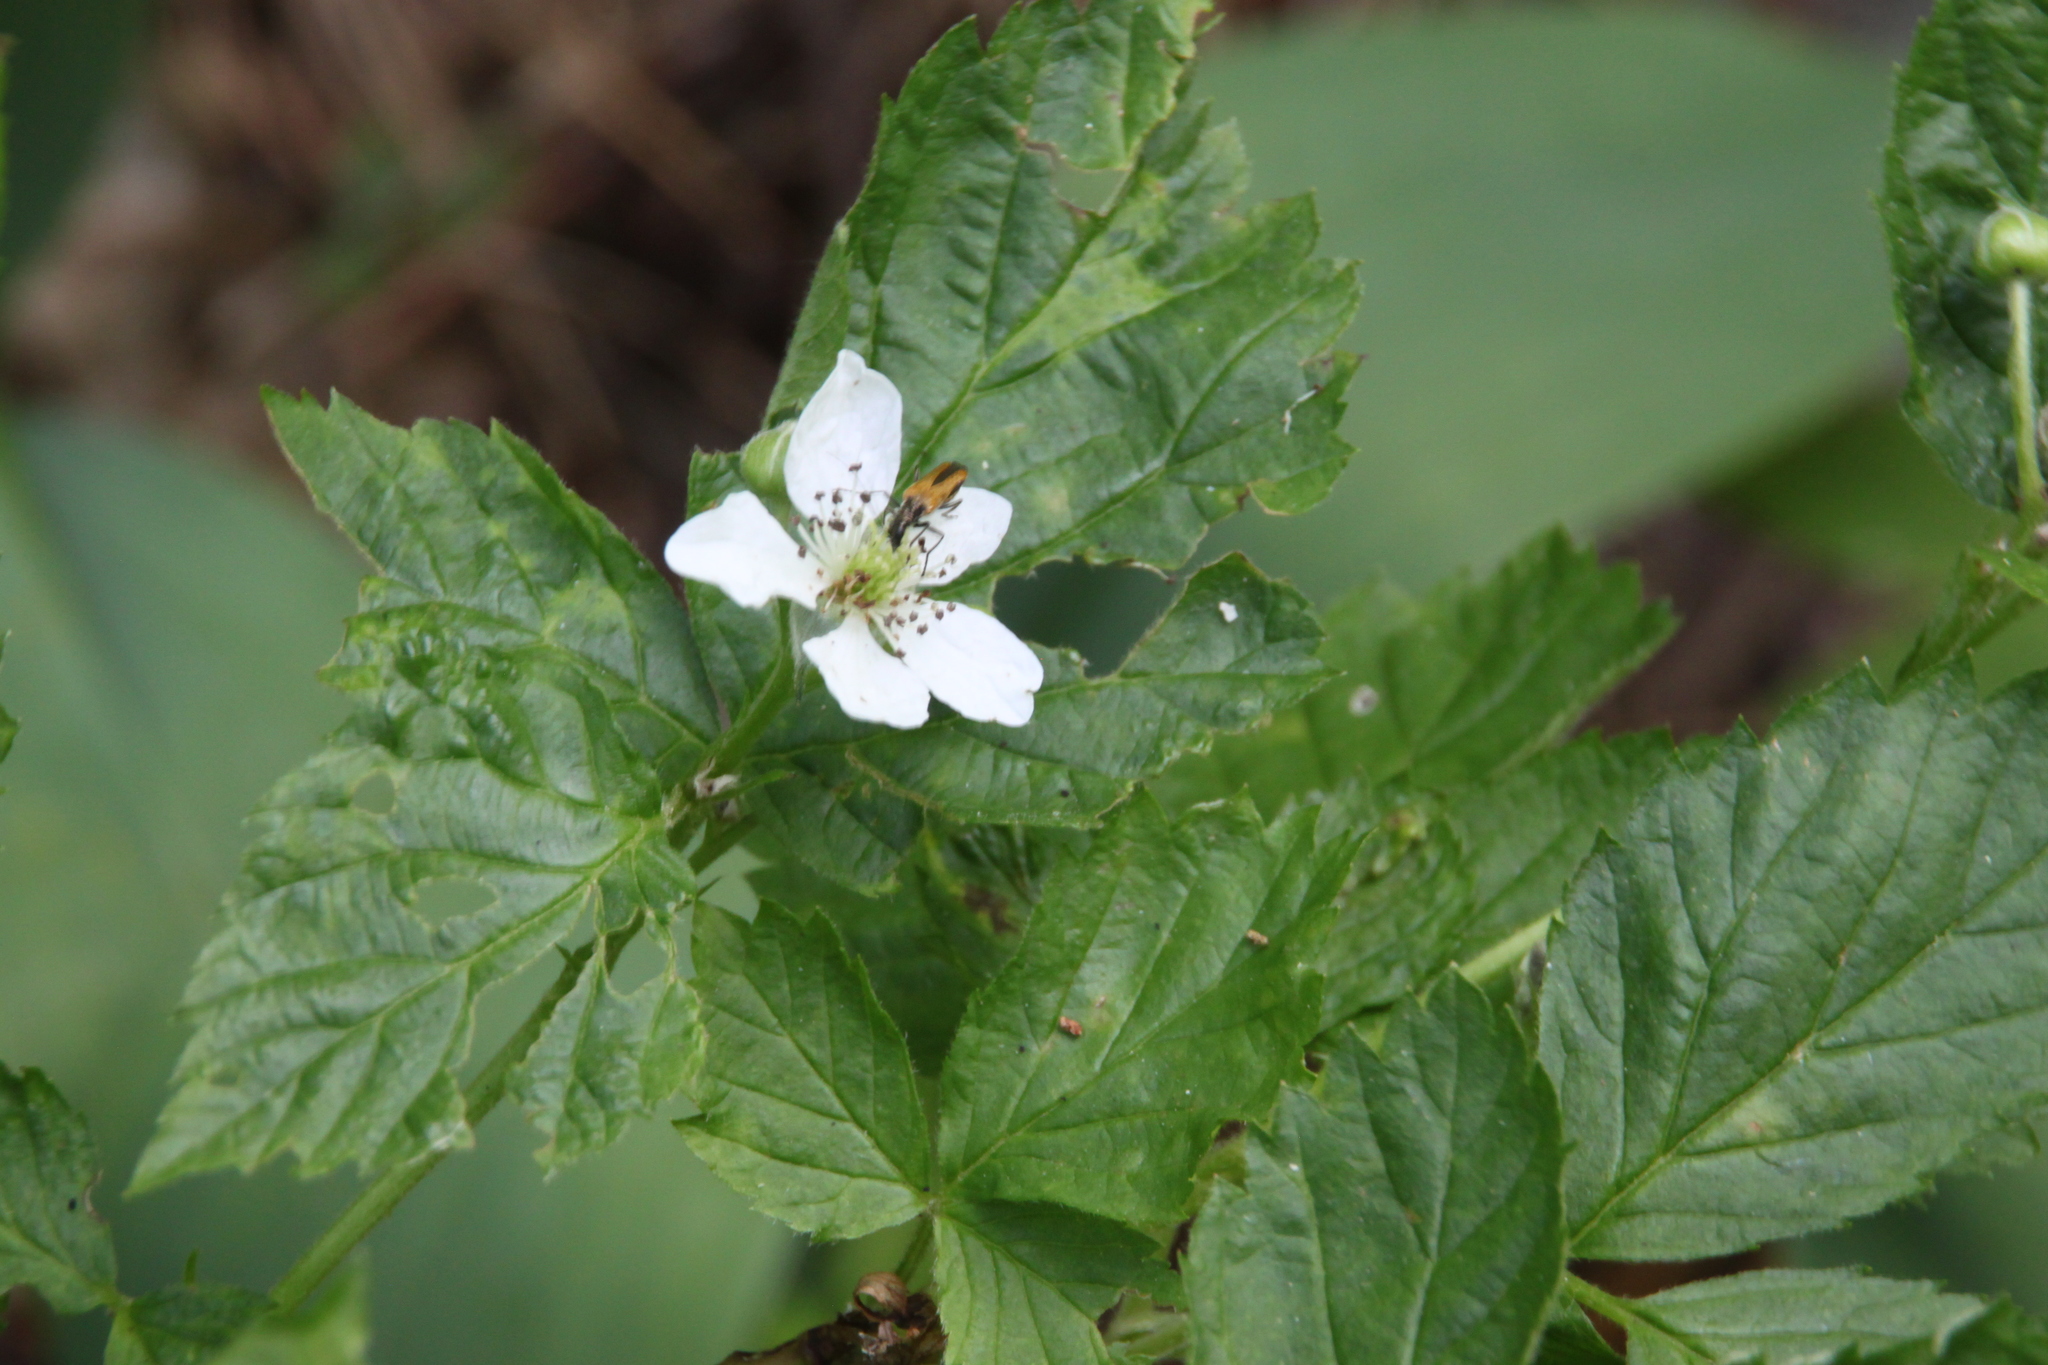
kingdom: Plantae
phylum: Tracheophyta
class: Magnoliopsida
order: Rosales
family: Rosaceae
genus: Rubus
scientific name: Rubus polonicus
